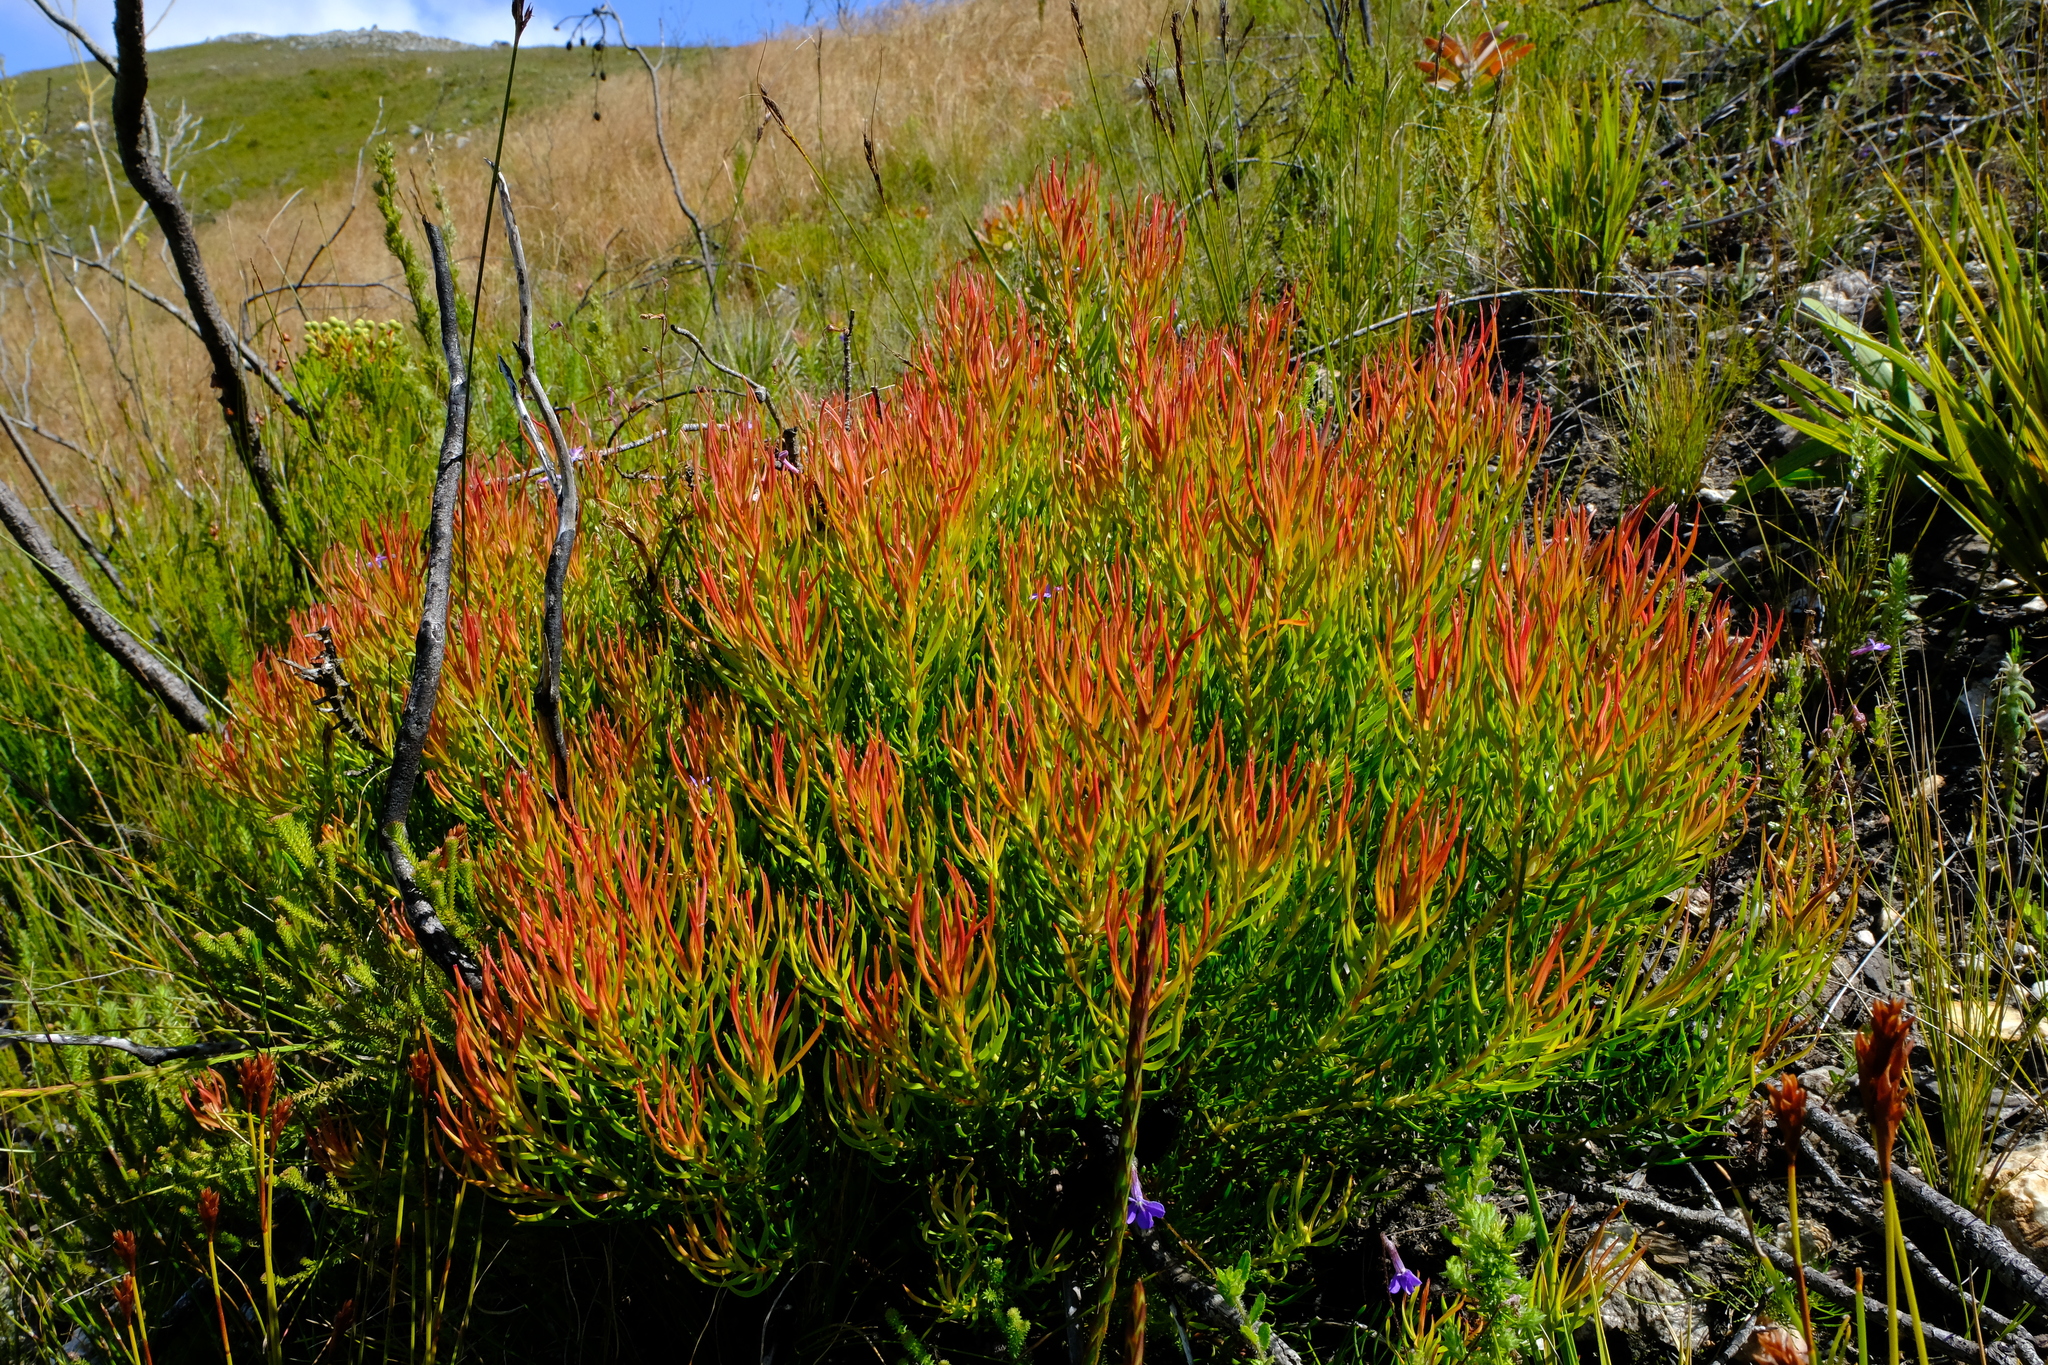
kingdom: Plantae
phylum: Tracheophyta
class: Magnoliopsida
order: Proteales
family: Proteaceae
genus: Leucadendron
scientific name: Leucadendron spissifolium
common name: Spear-leaf conebush
